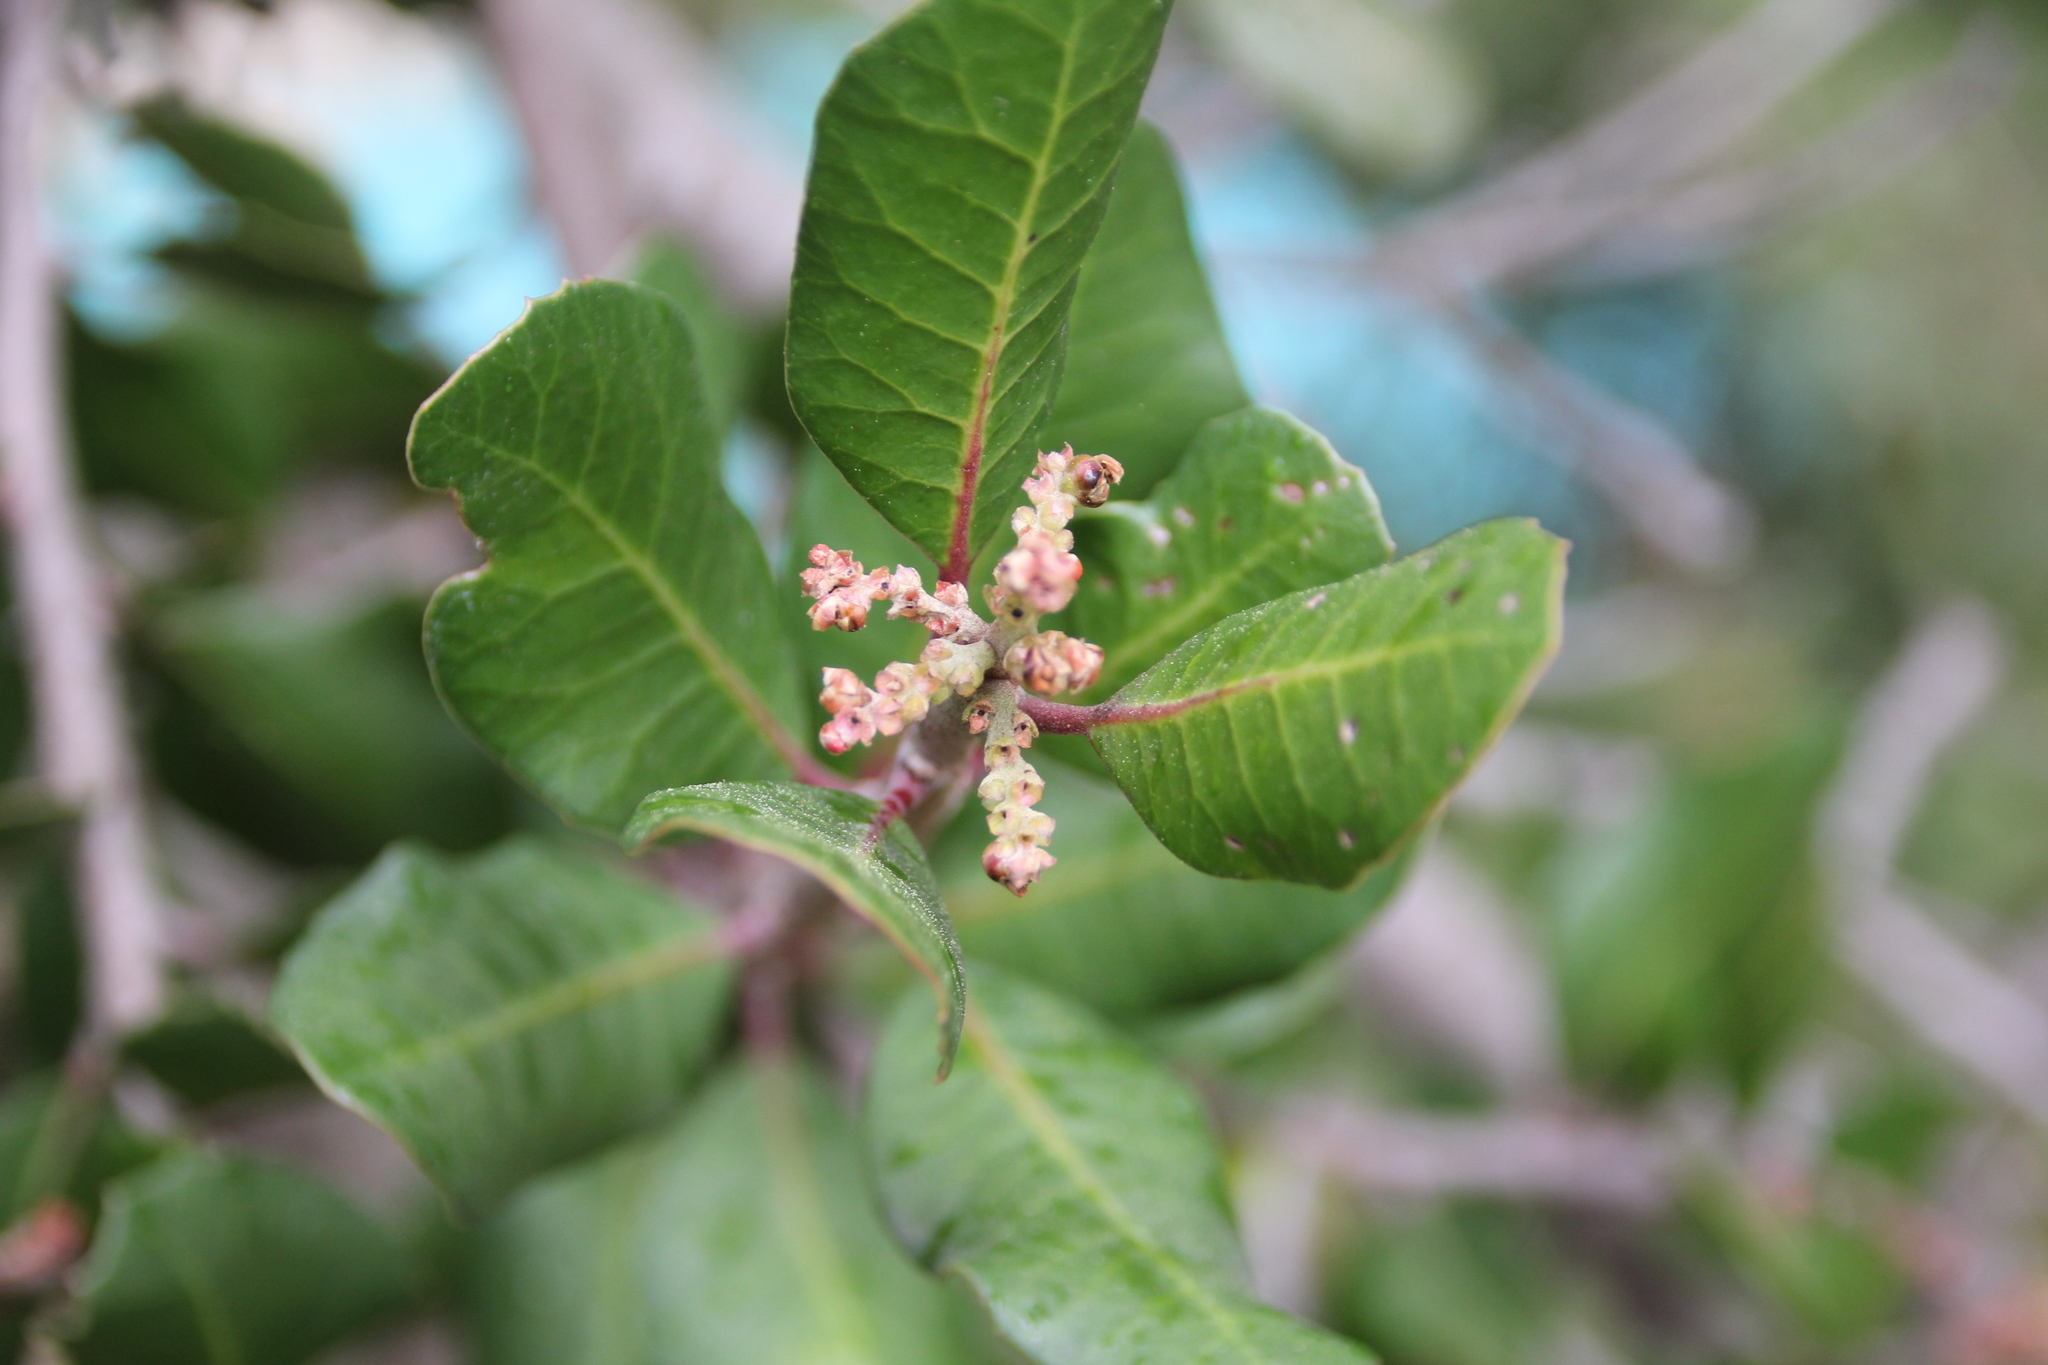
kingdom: Plantae
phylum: Tracheophyta
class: Magnoliopsida
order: Sapindales
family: Anacardiaceae
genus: Rhus
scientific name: Rhus integrifolia
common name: Lemonade sumac
